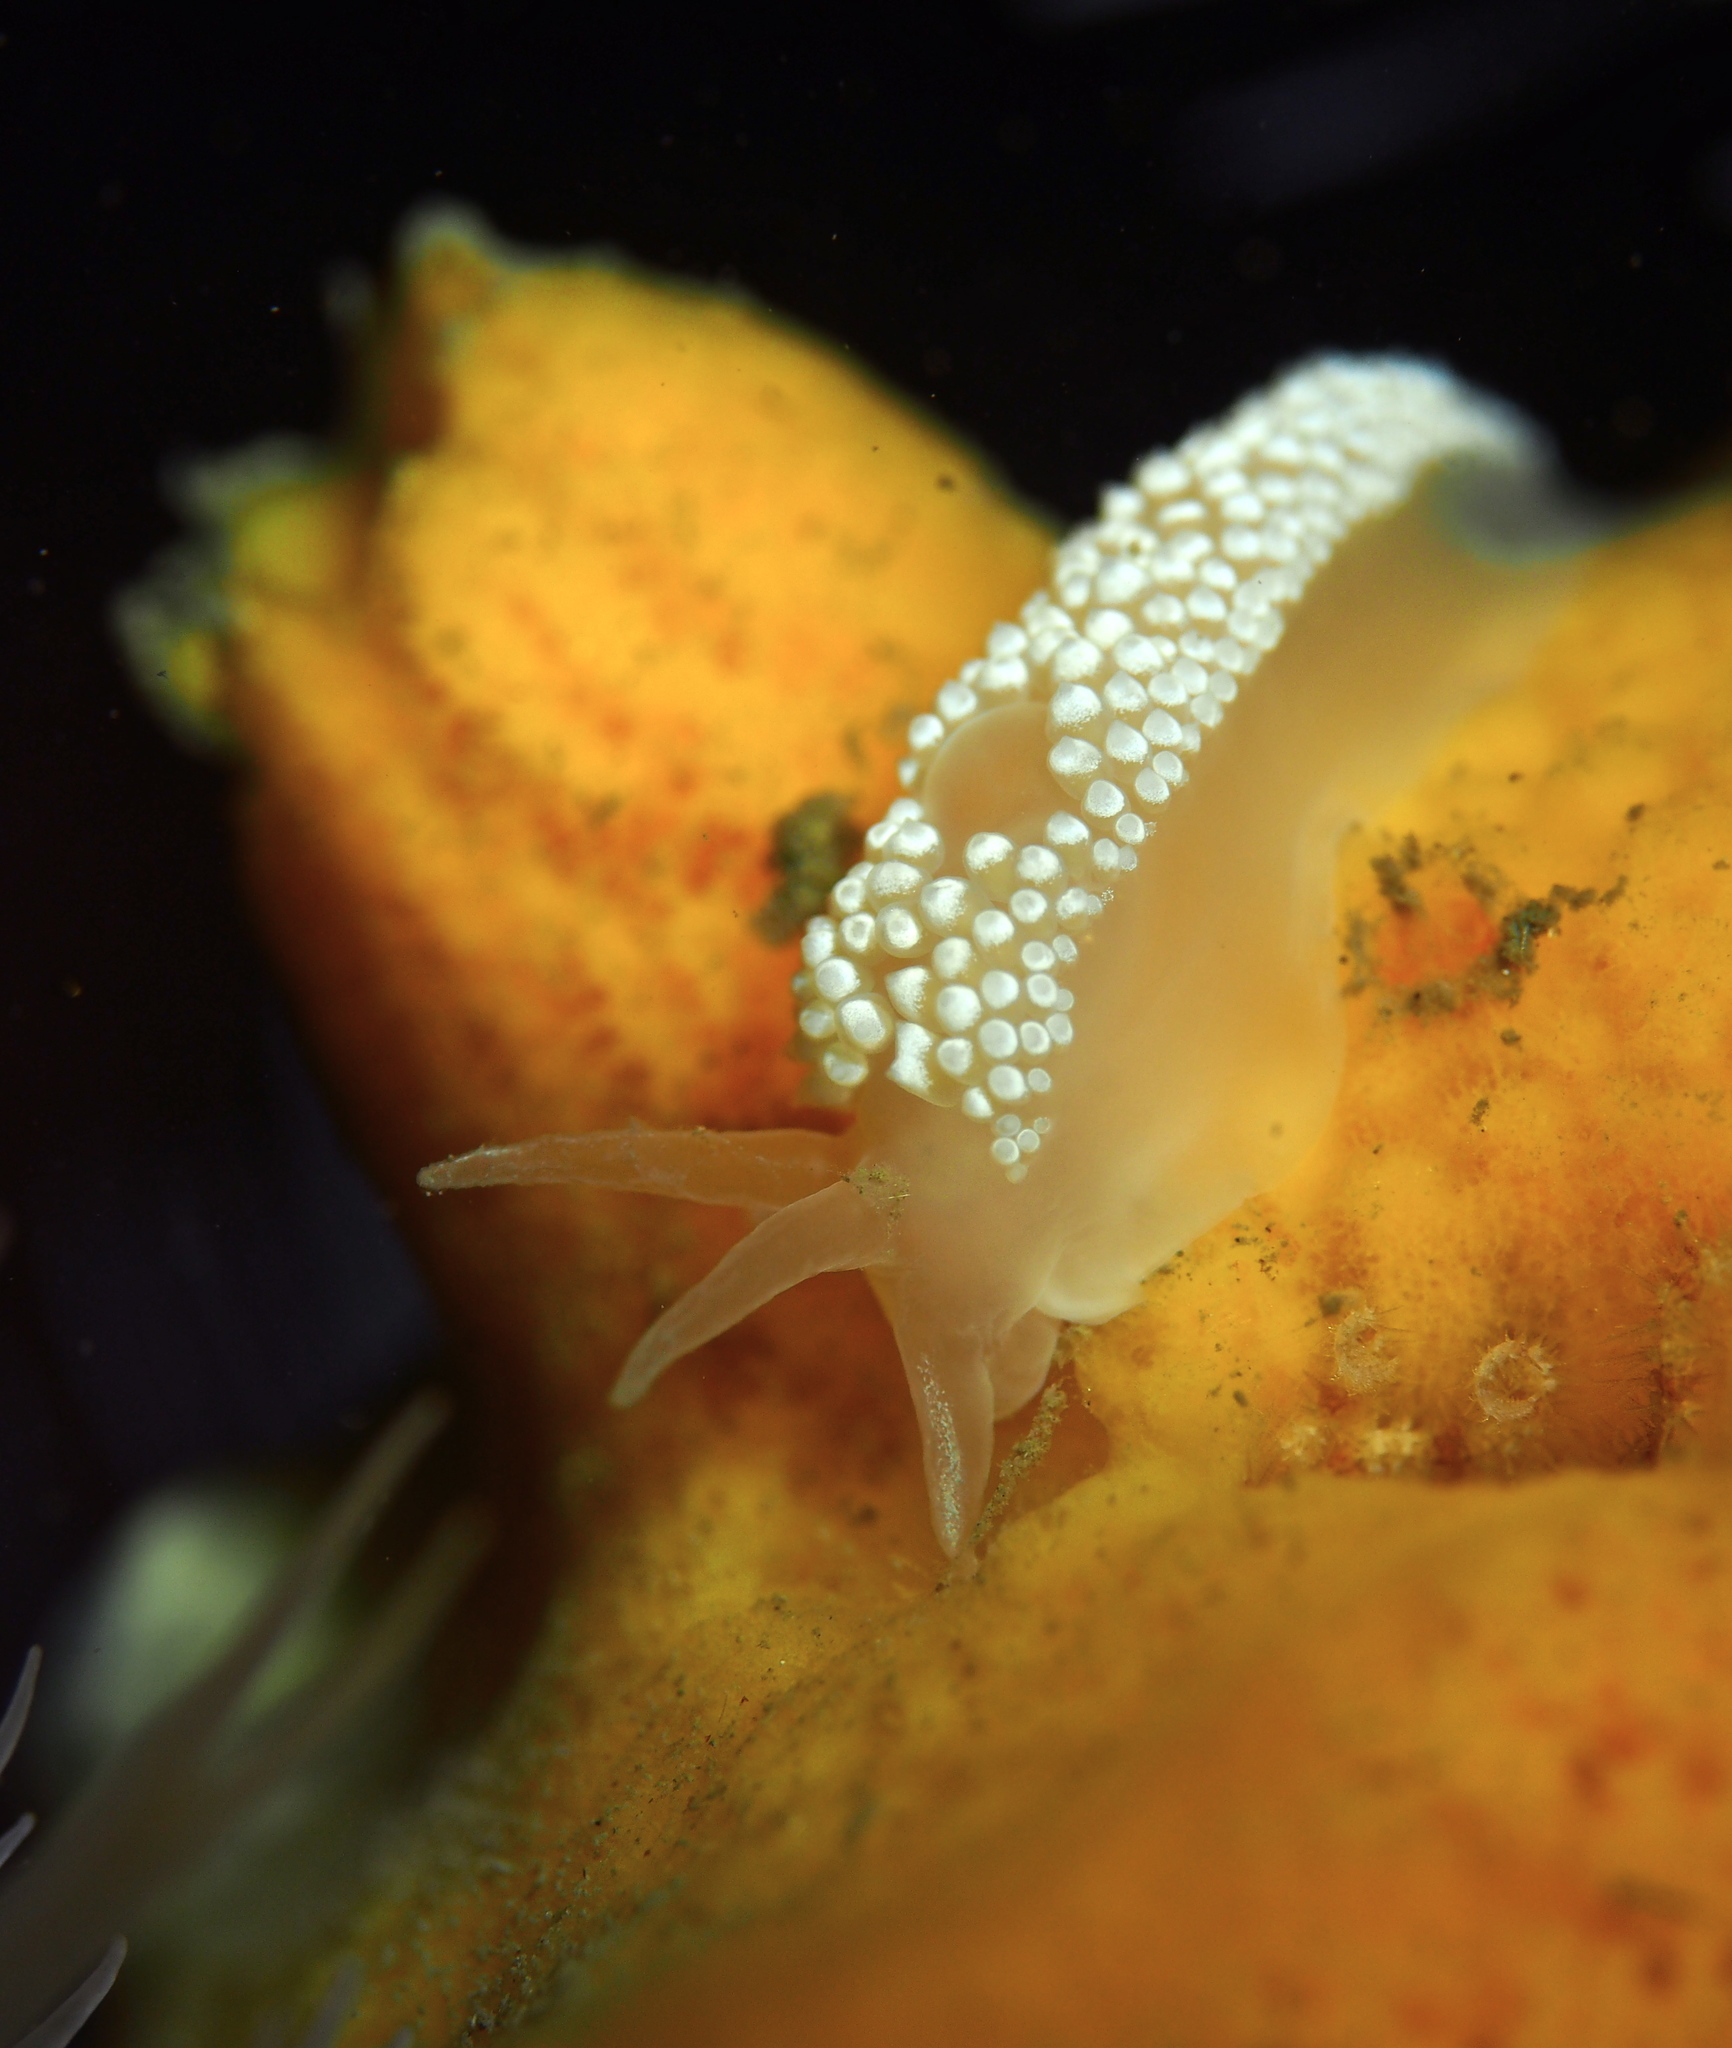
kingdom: Animalia
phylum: Mollusca
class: Gastropoda
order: Nudibranchia
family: Coryphellidae
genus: Coryphella
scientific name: Coryphella verrucosa
